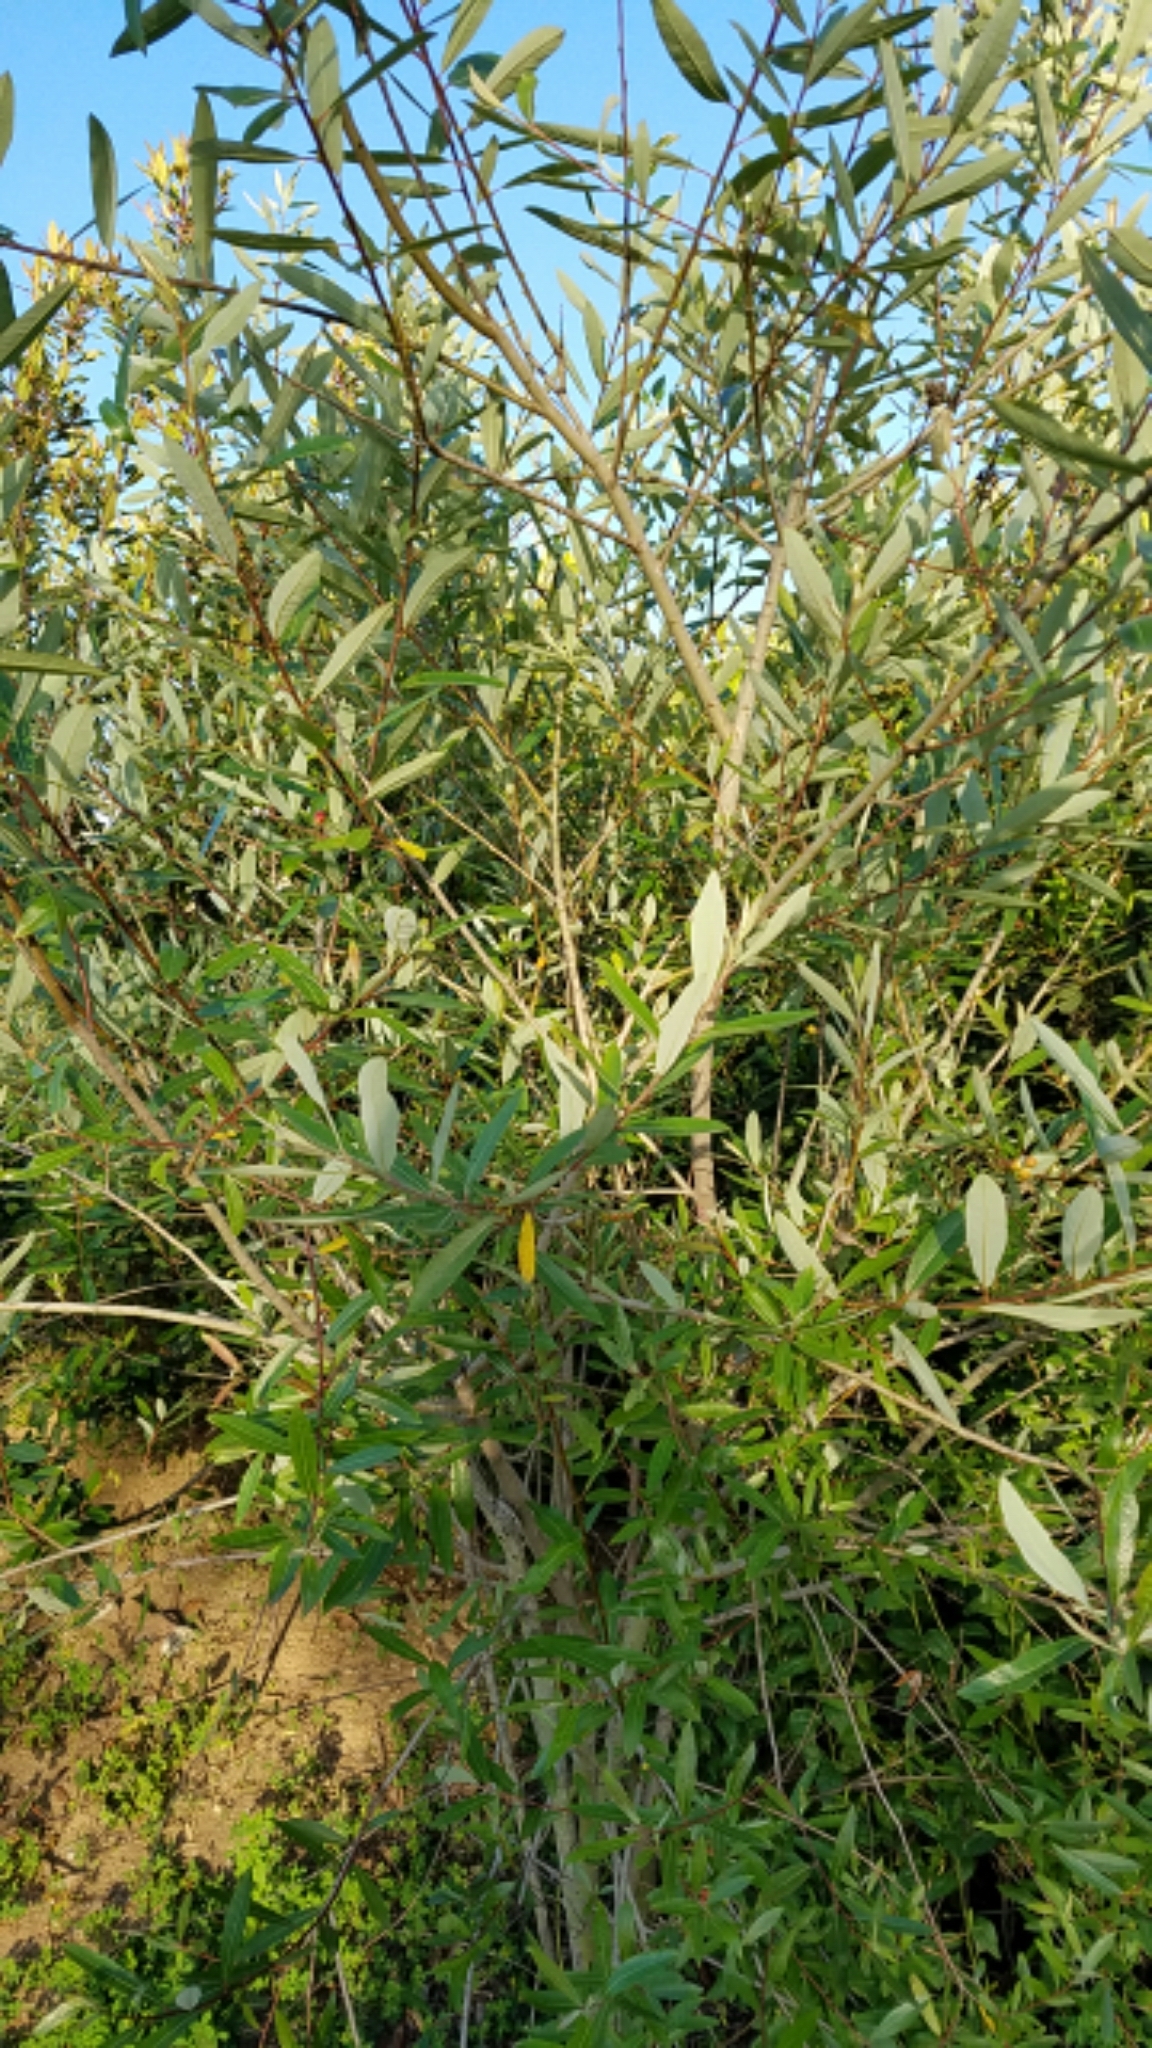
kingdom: Plantae
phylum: Tracheophyta
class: Magnoliopsida
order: Malpighiales
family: Salicaceae
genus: Salix
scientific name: Salix lasiolepis
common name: Arroyo willow
